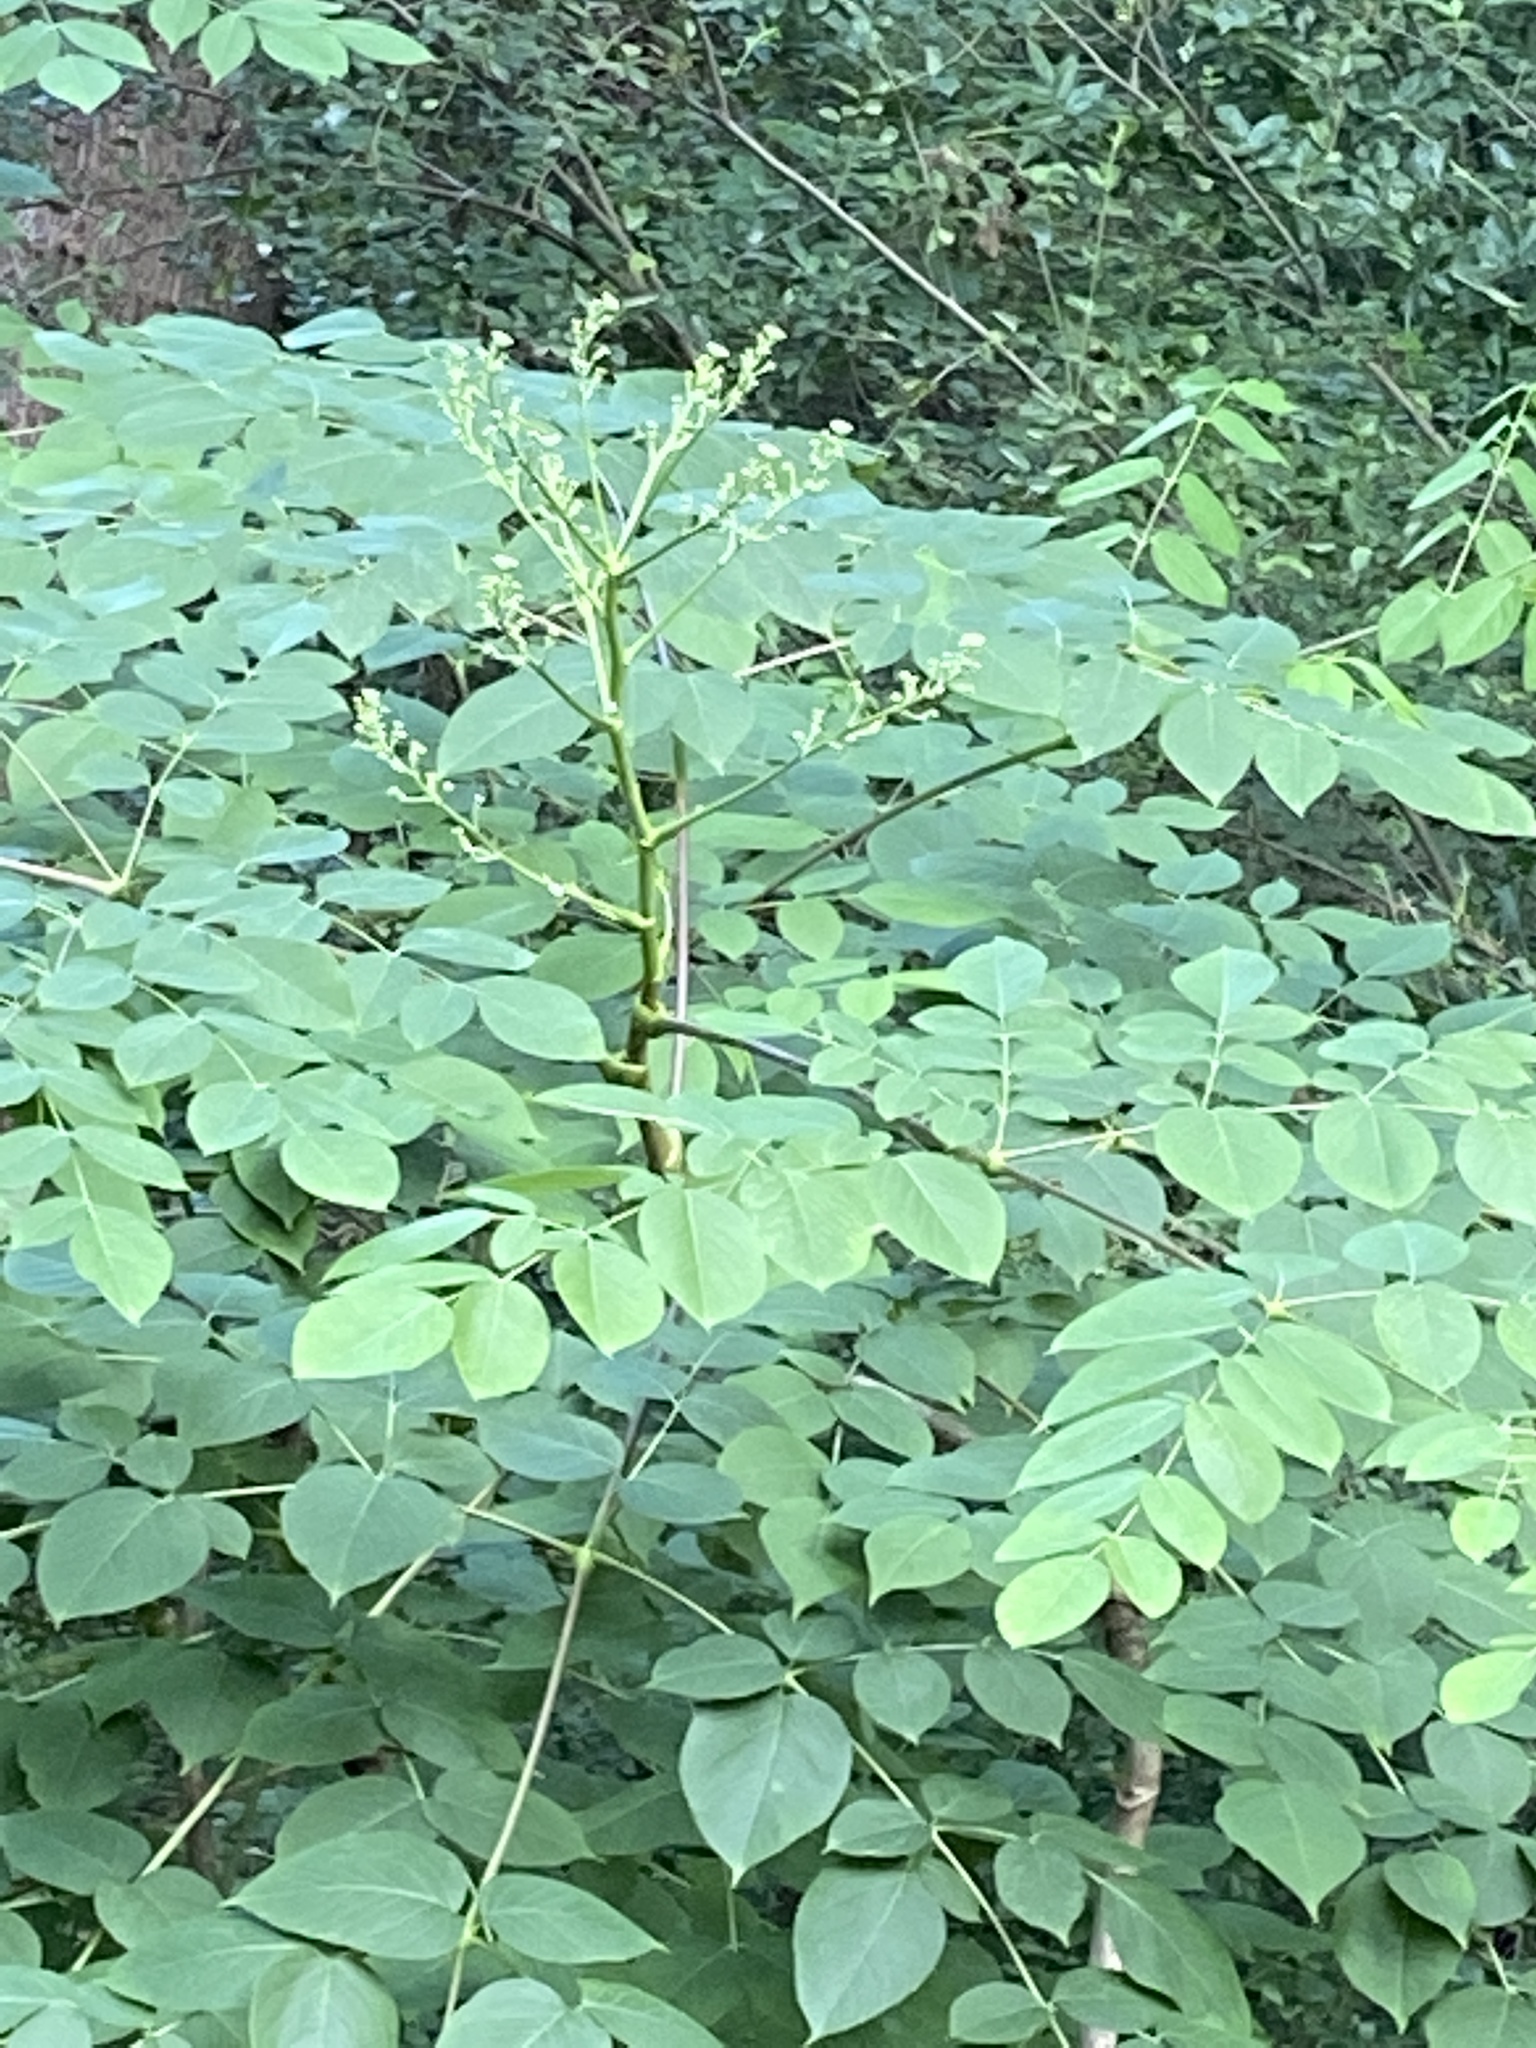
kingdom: Plantae
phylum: Tracheophyta
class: Magnoliopsida
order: Apiales
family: Araliaceae
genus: Aralia
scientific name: Aralia spinosa
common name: Hercules'-club
